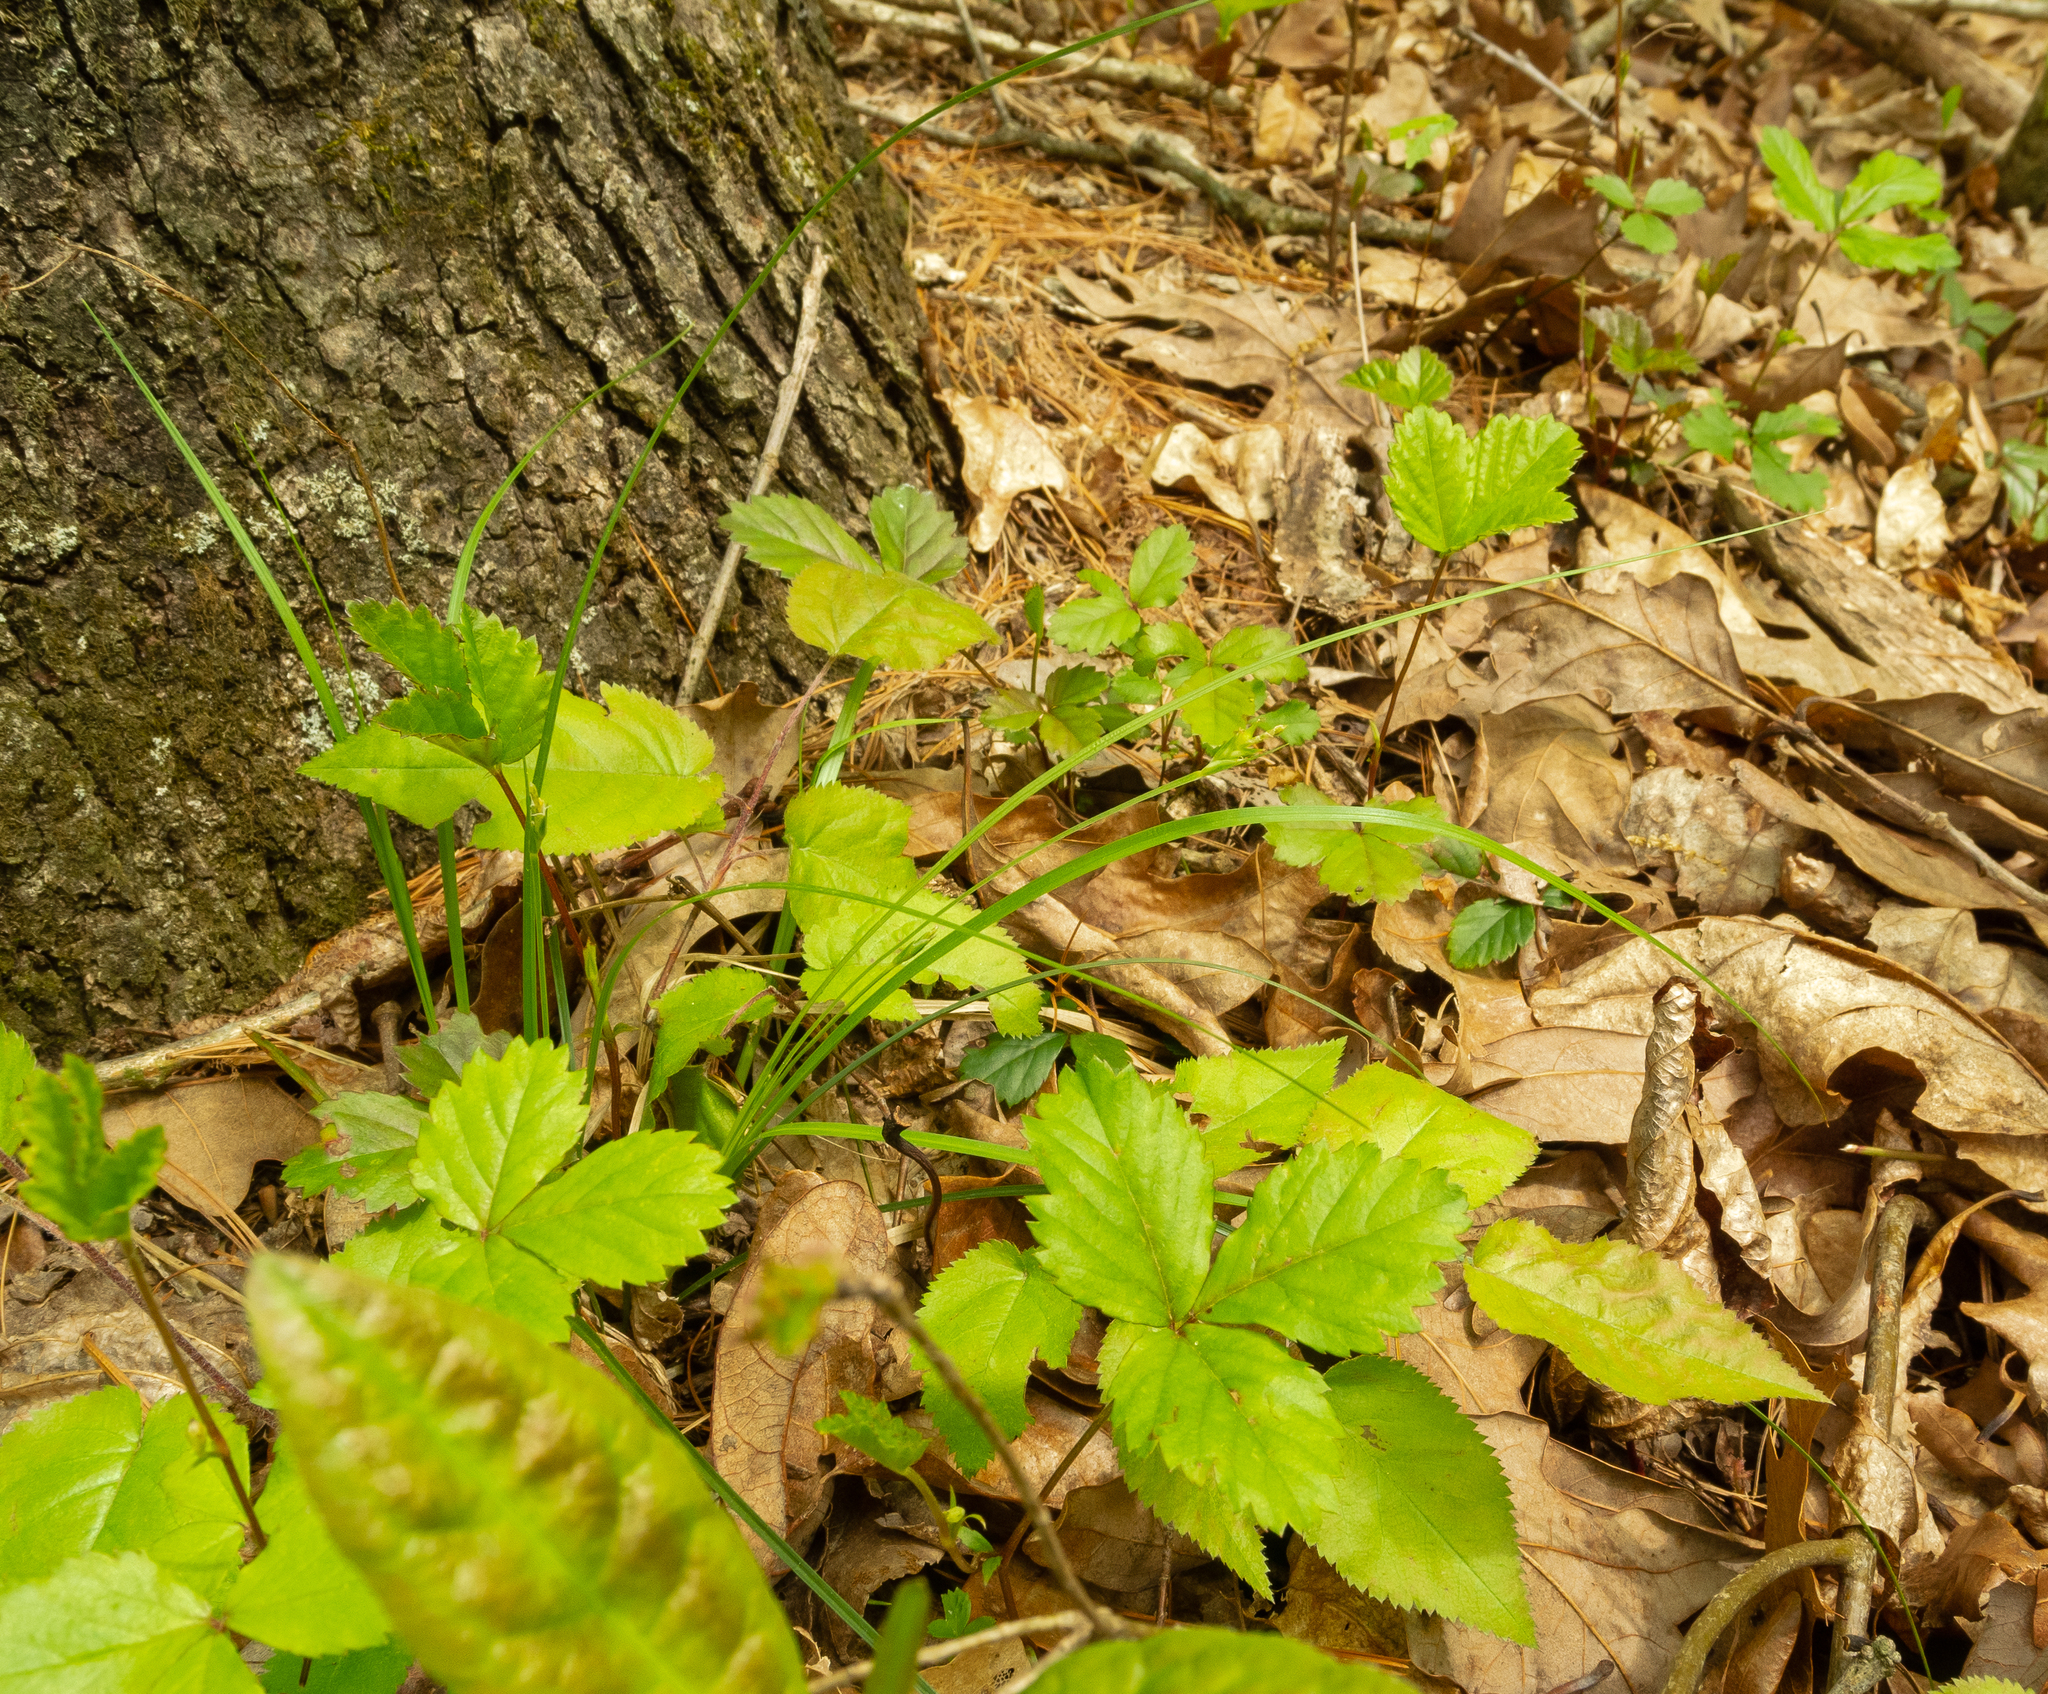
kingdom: Plantae
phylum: Tracheophyta
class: Liliopsida
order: Poales
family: Cyperaceae
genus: Carex
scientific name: Carex willdenowii
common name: Willdenow's sedge
